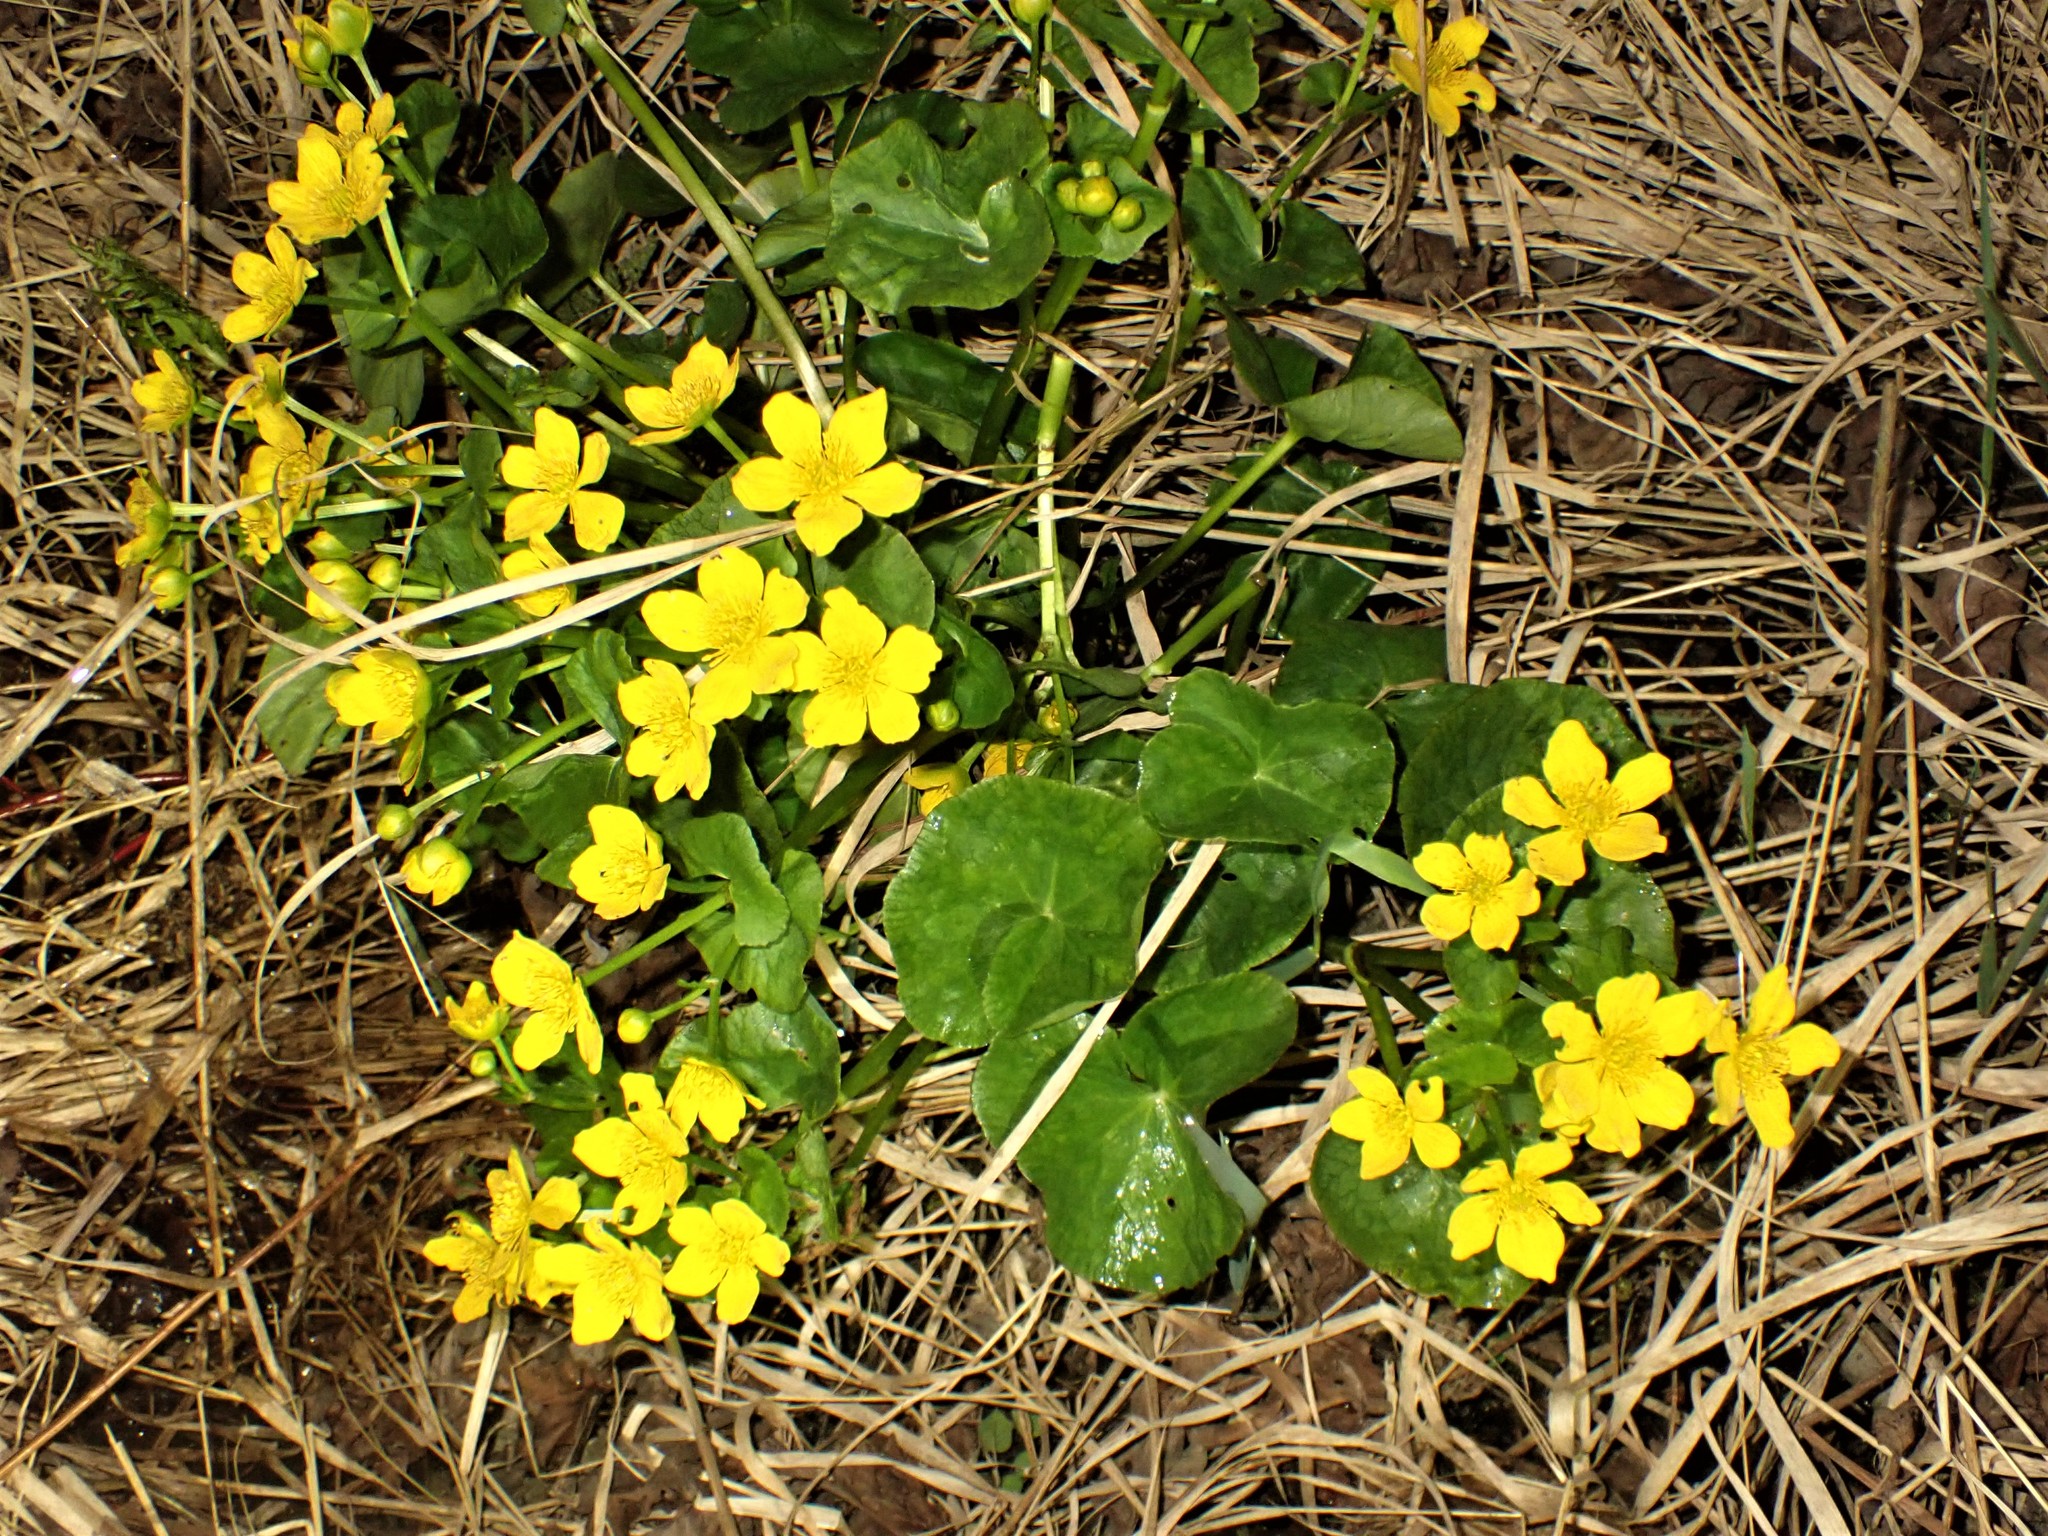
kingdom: Plantae
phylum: Tracheophyta
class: Magnoliopsida
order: Ranunculales
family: Ranunculaceae
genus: Caltha
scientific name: Caltha palustris
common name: Marsh marigold
